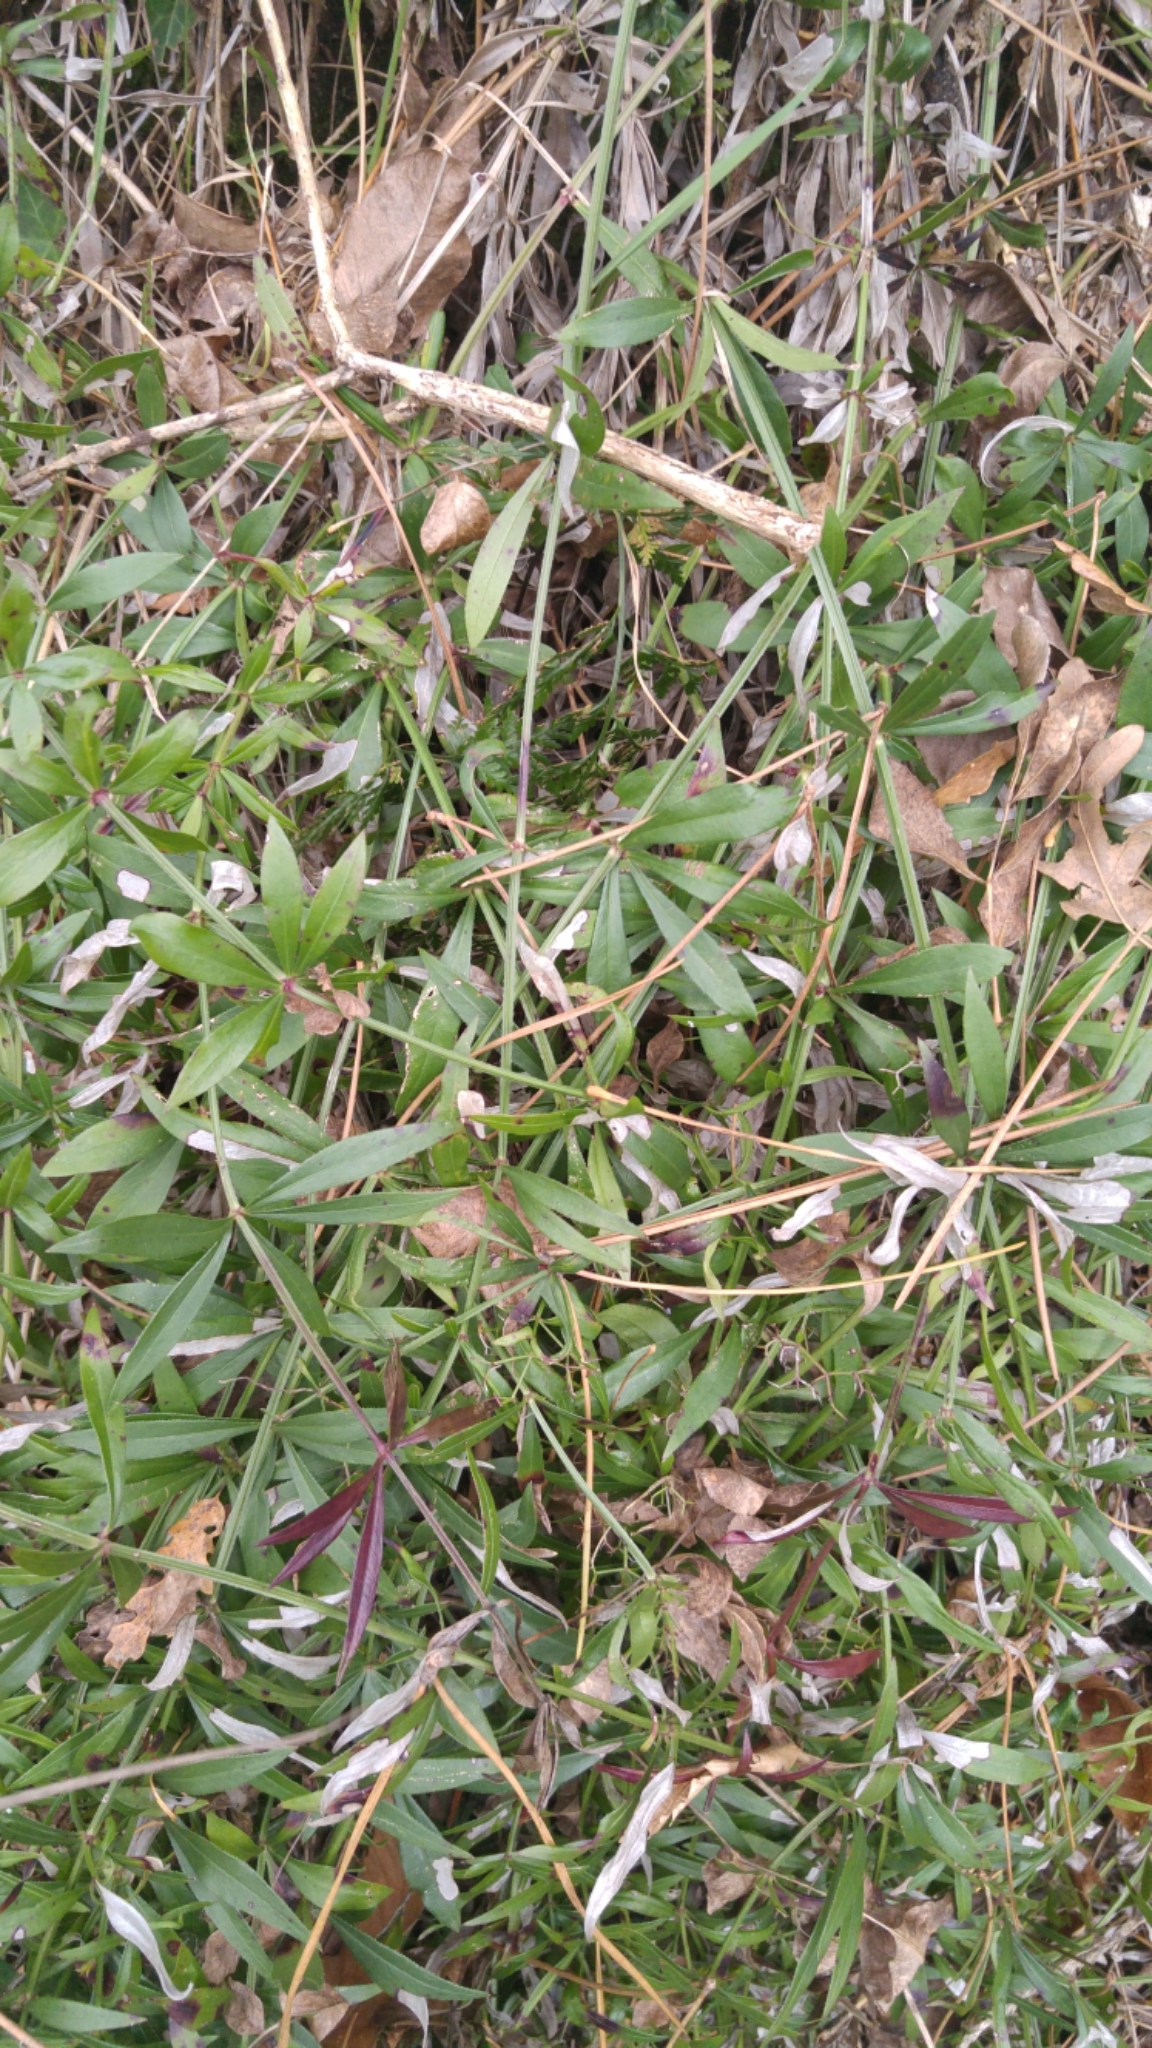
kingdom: Plantae
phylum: Tracheophyta
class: Magnoliopsida
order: Gentianales
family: Rubiaceae
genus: Rubia
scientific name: Rubia peregrina
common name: Wild madder
